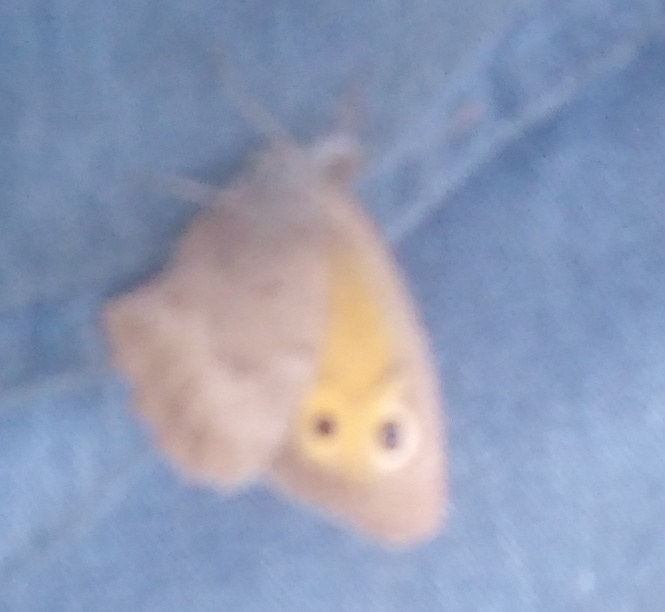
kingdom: Animalia
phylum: Arthropoda
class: Insecta
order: Lepidoptera
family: Nymphalidae
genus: Hyponephele
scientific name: Hyponephele lycaon
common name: Dusky meadow brown
